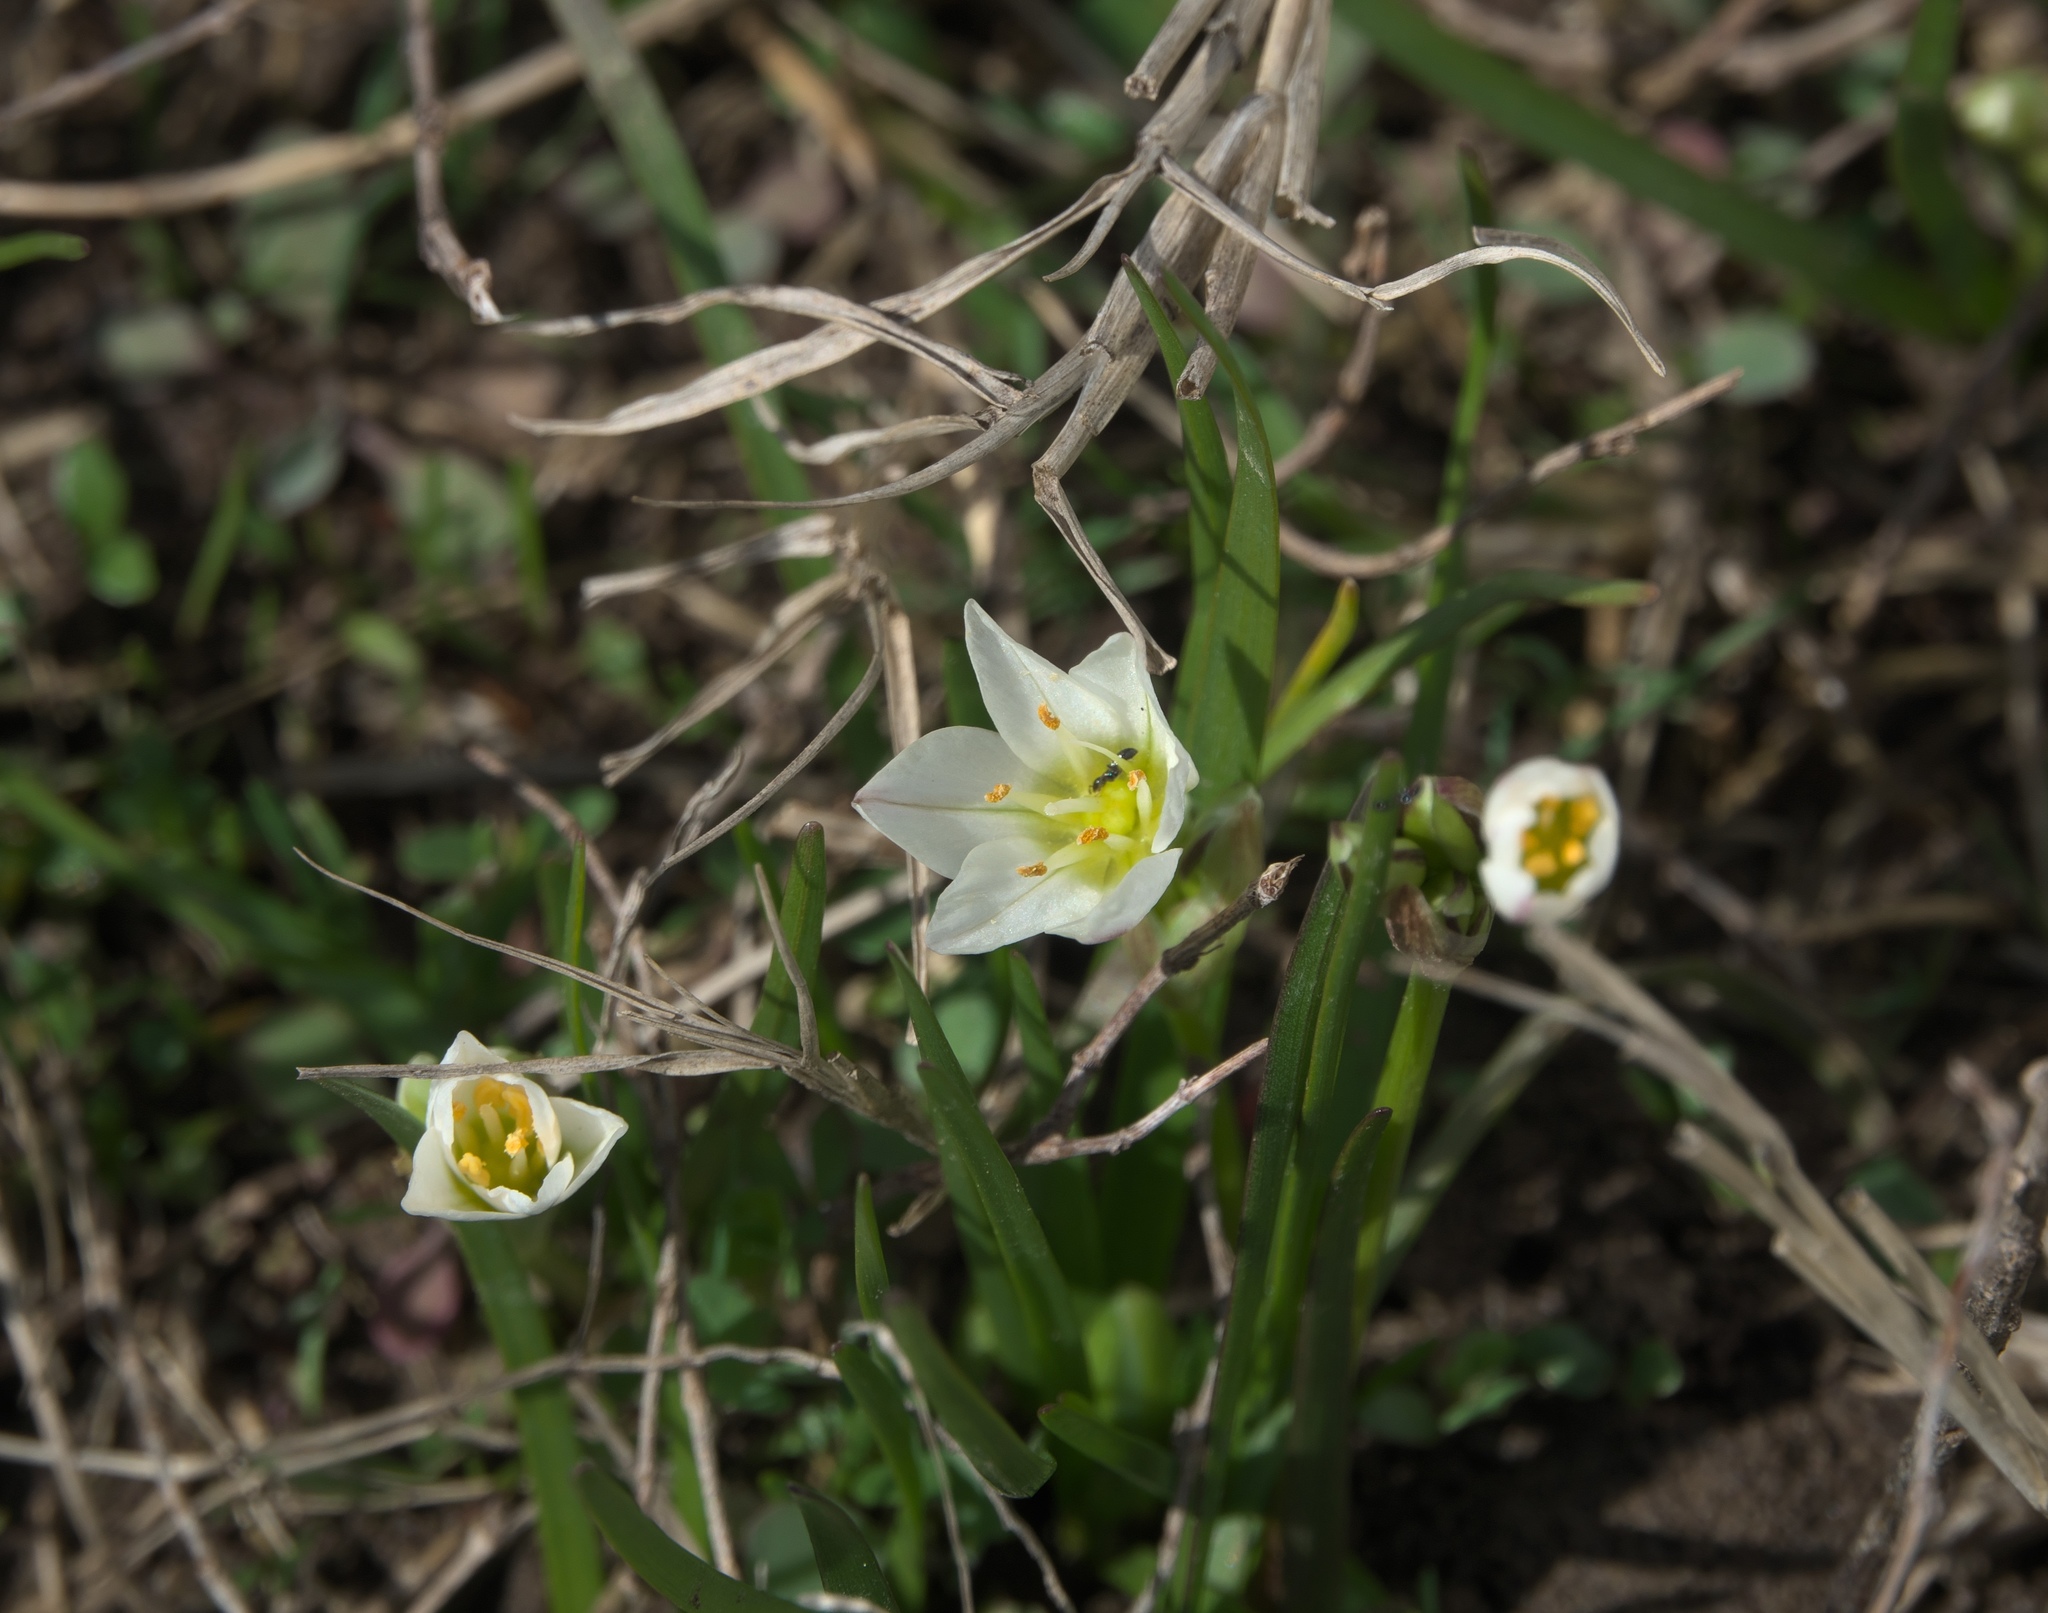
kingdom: Plantae
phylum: Tracheophyta
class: Liliopsida
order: Asparagales
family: Amaryllidaceae
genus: Nothoscordum
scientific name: Nothoscordum bivalve
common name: Crow-poison
